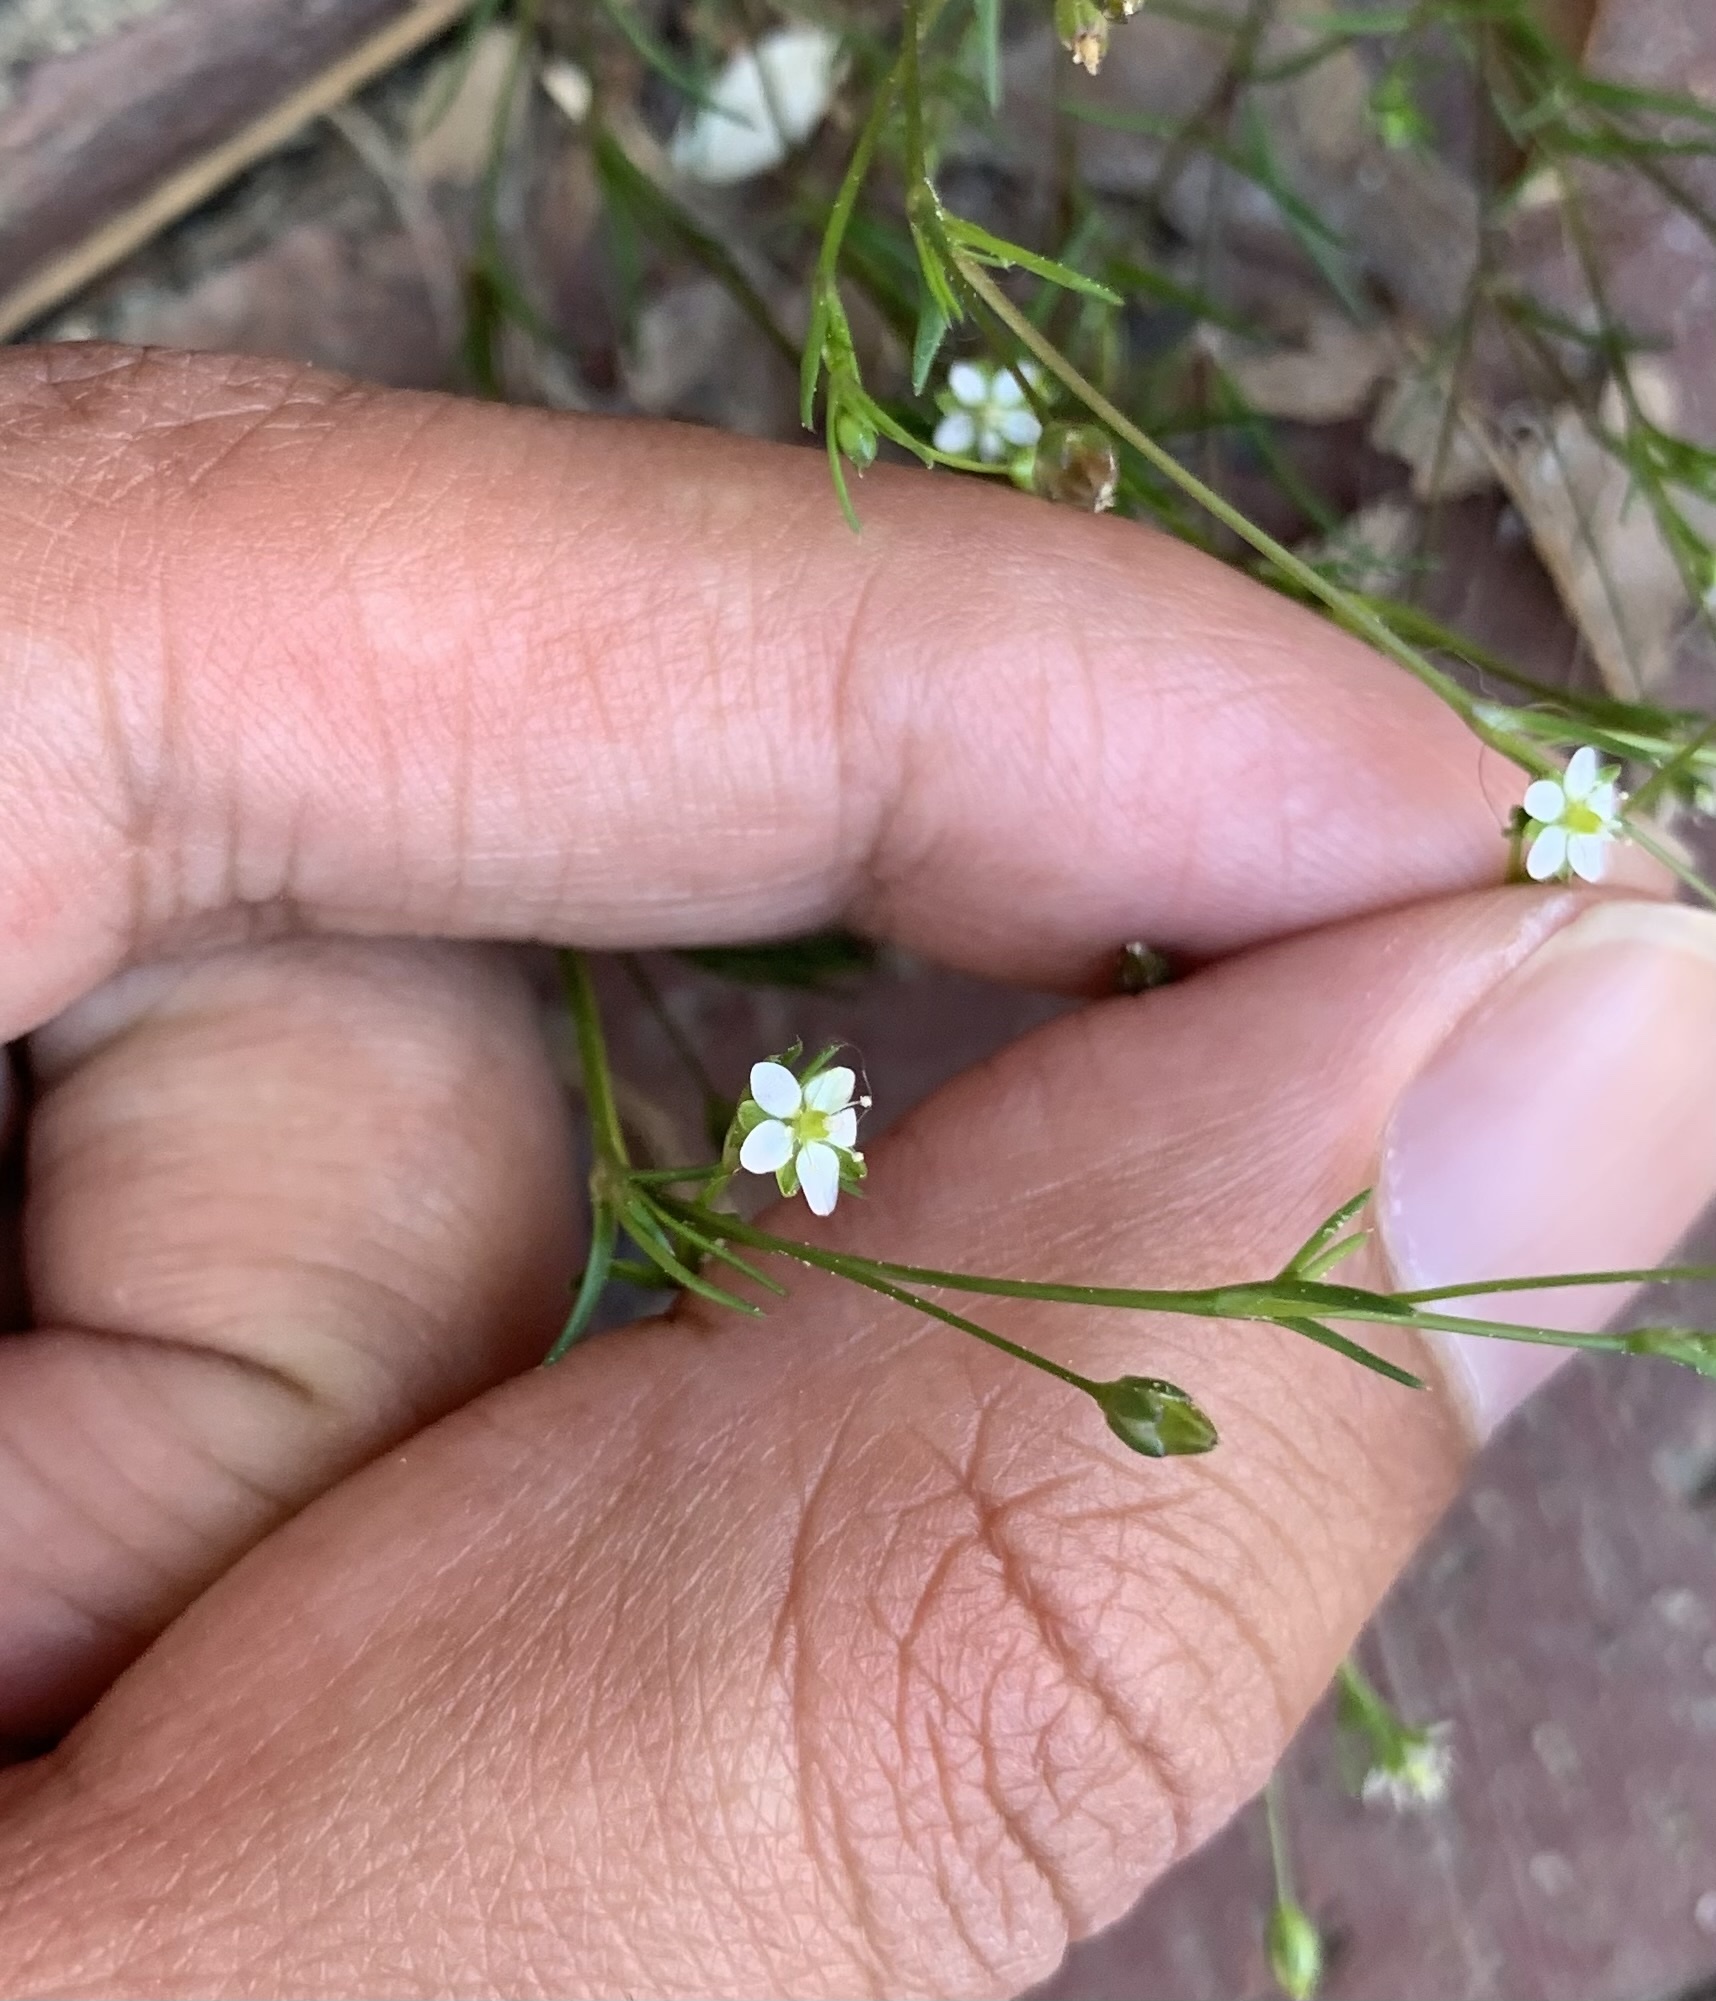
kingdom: Plantae
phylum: Tracheophyta
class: Magnoliopsida
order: Caryophyllales
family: Caryophyllaceae
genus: Sagina
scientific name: Sagina decumbens
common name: Decumbent pearlwort
